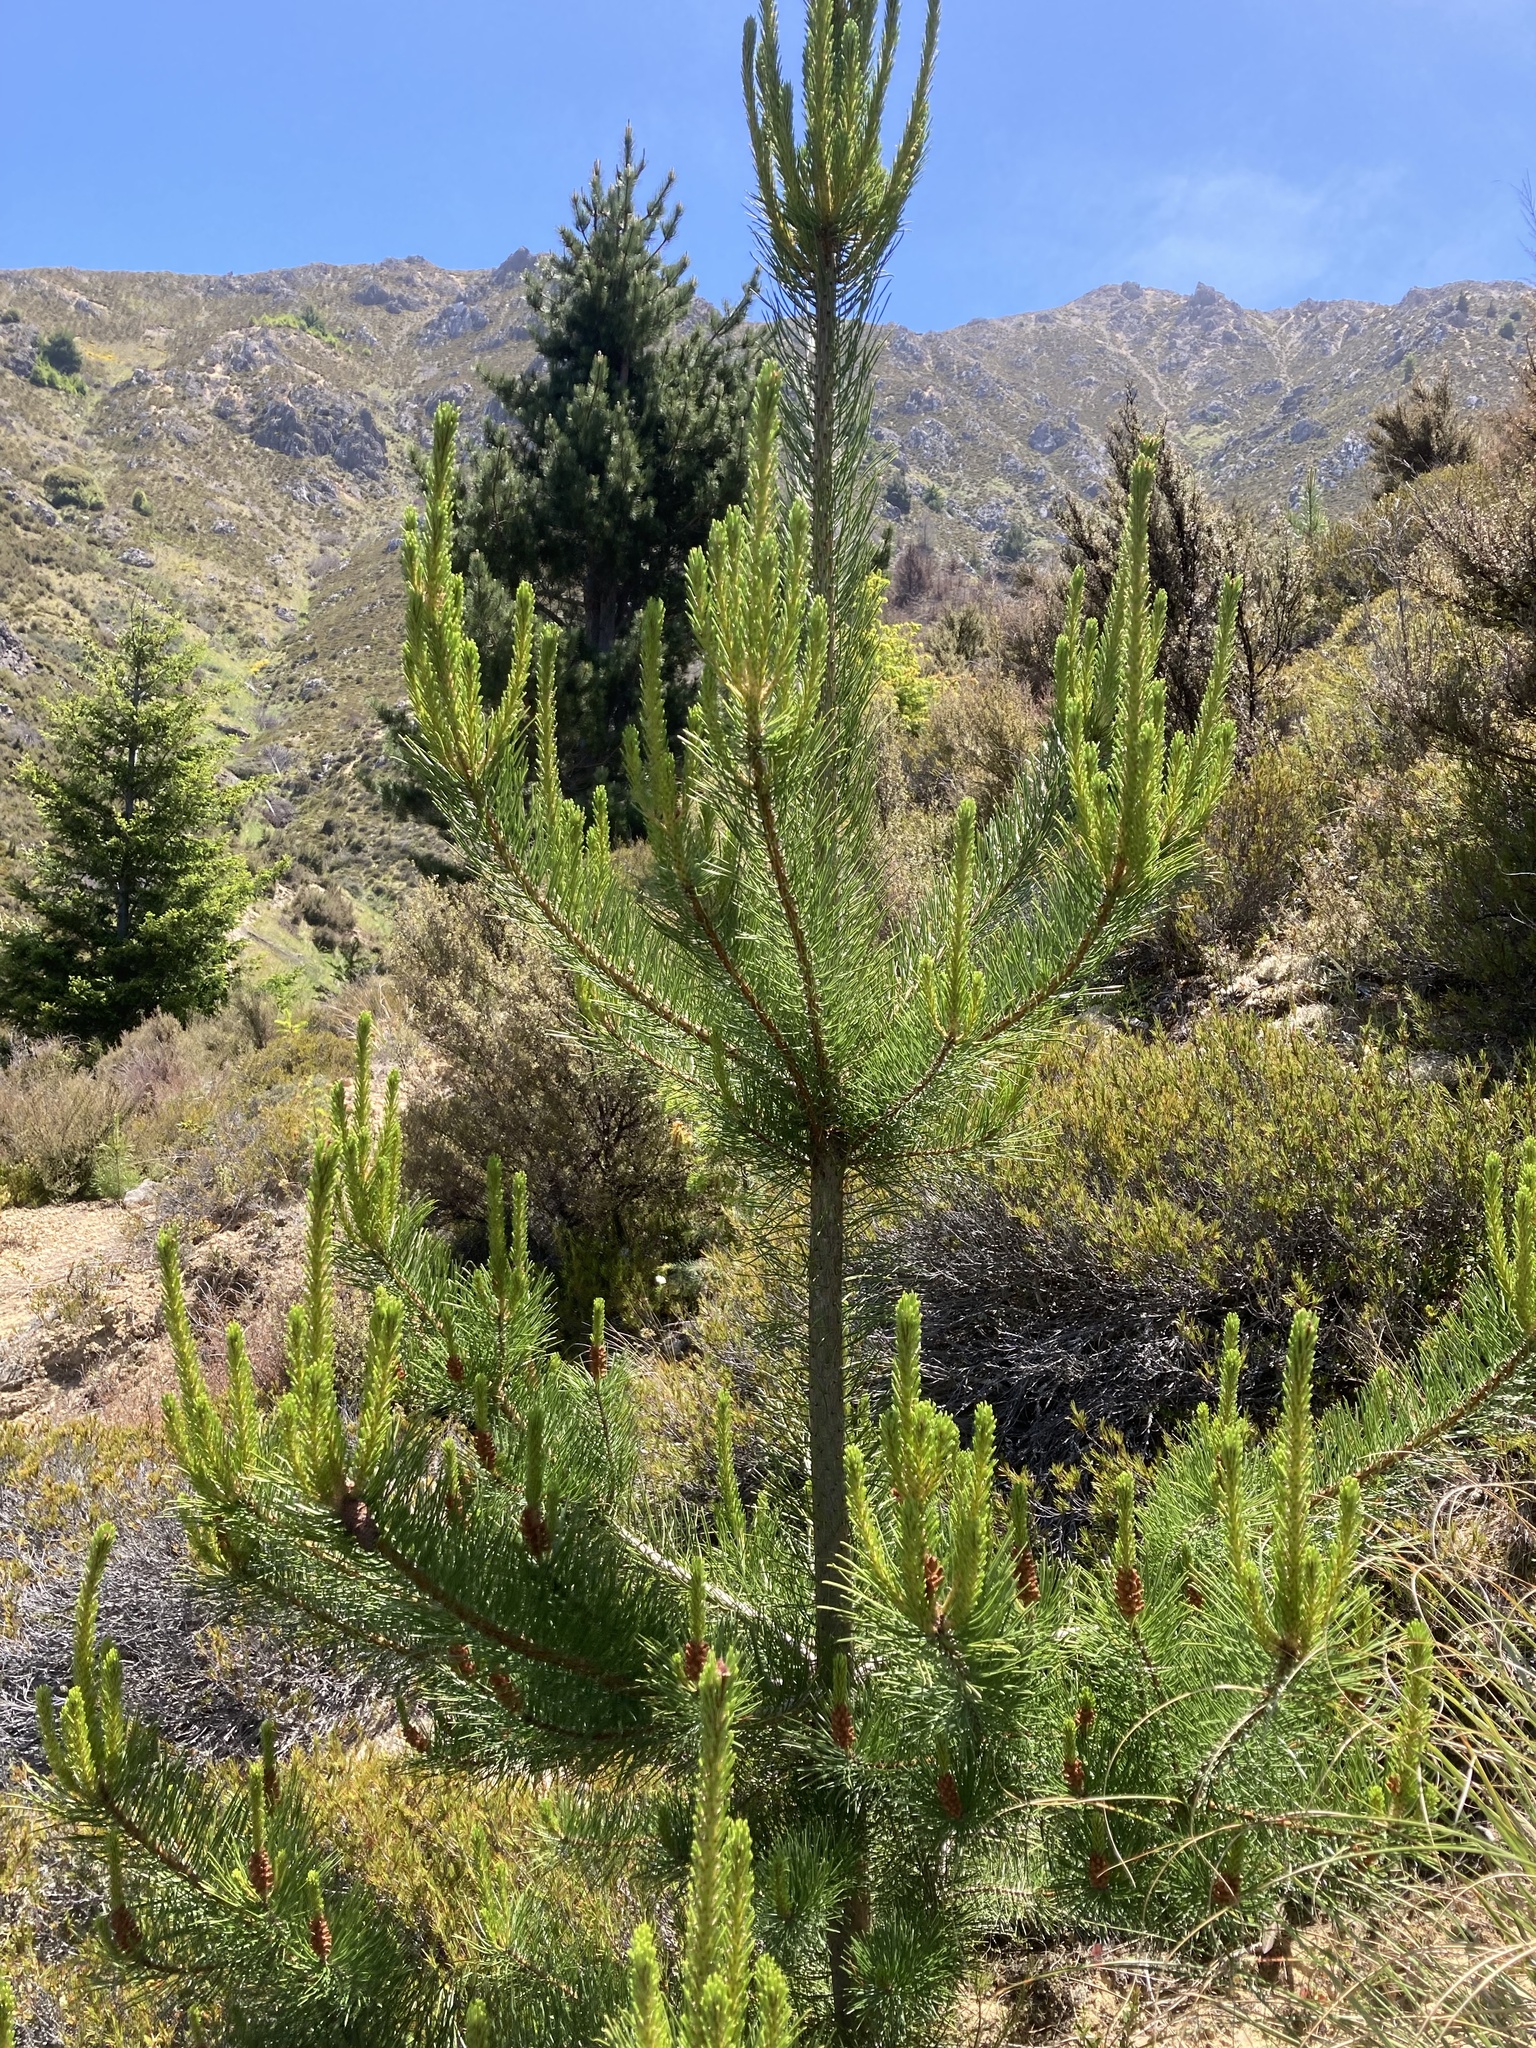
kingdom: Plantae
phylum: Tracheophyta
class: Pinopsida
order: Pinales
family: Pinaceae
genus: Pinus
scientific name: Pinus contorta
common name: Lodgepole pine
